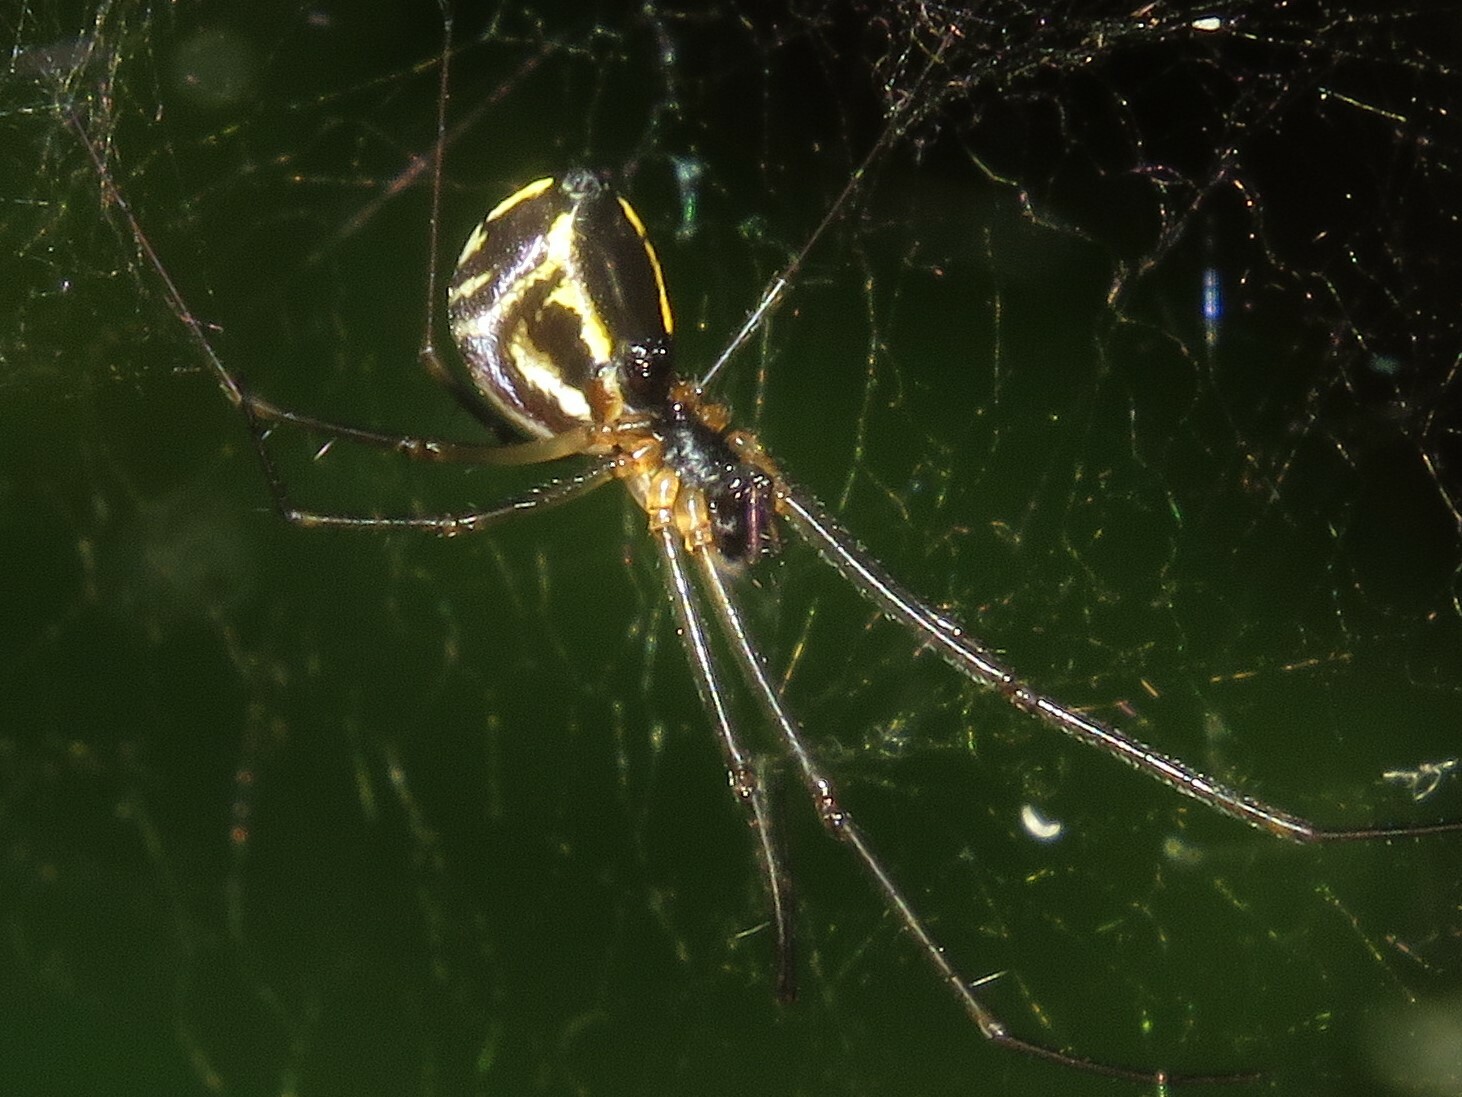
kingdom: Animalia
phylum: Arthropoda
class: Arachnida
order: Araneae
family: Linyphiidae
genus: Neriene
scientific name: Neriene radiata
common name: Filmy dome spider
